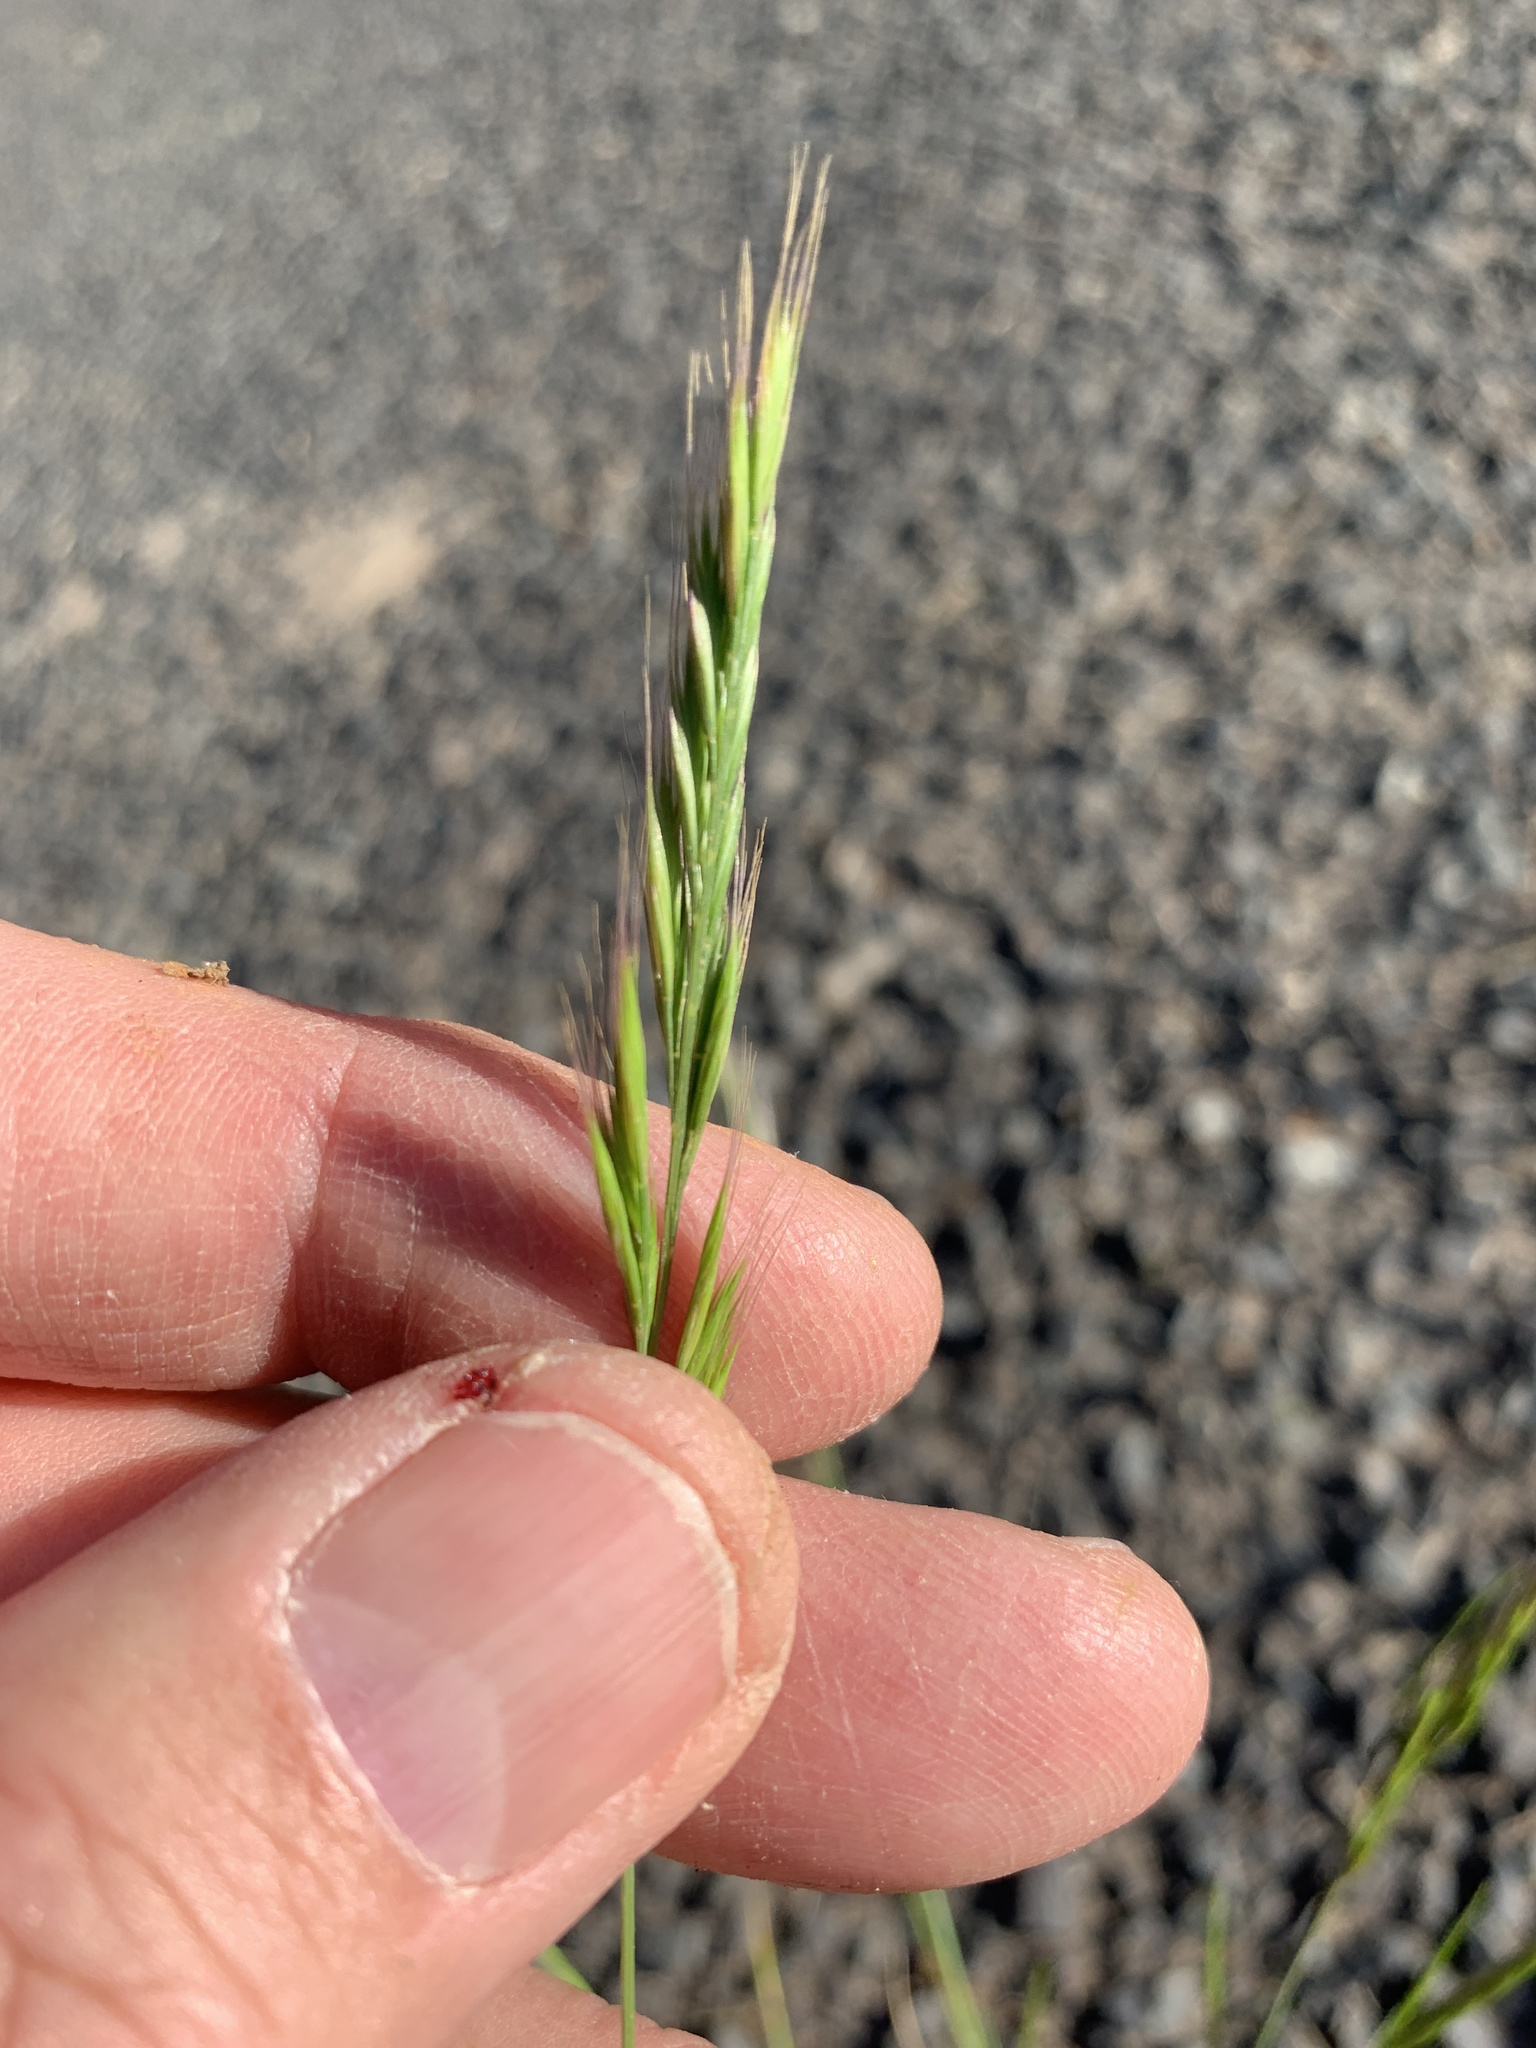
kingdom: Plantae
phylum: Tracheophyta
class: Liliopsida
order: Poales
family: Poaceae
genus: Festuca
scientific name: Festuca myuros
